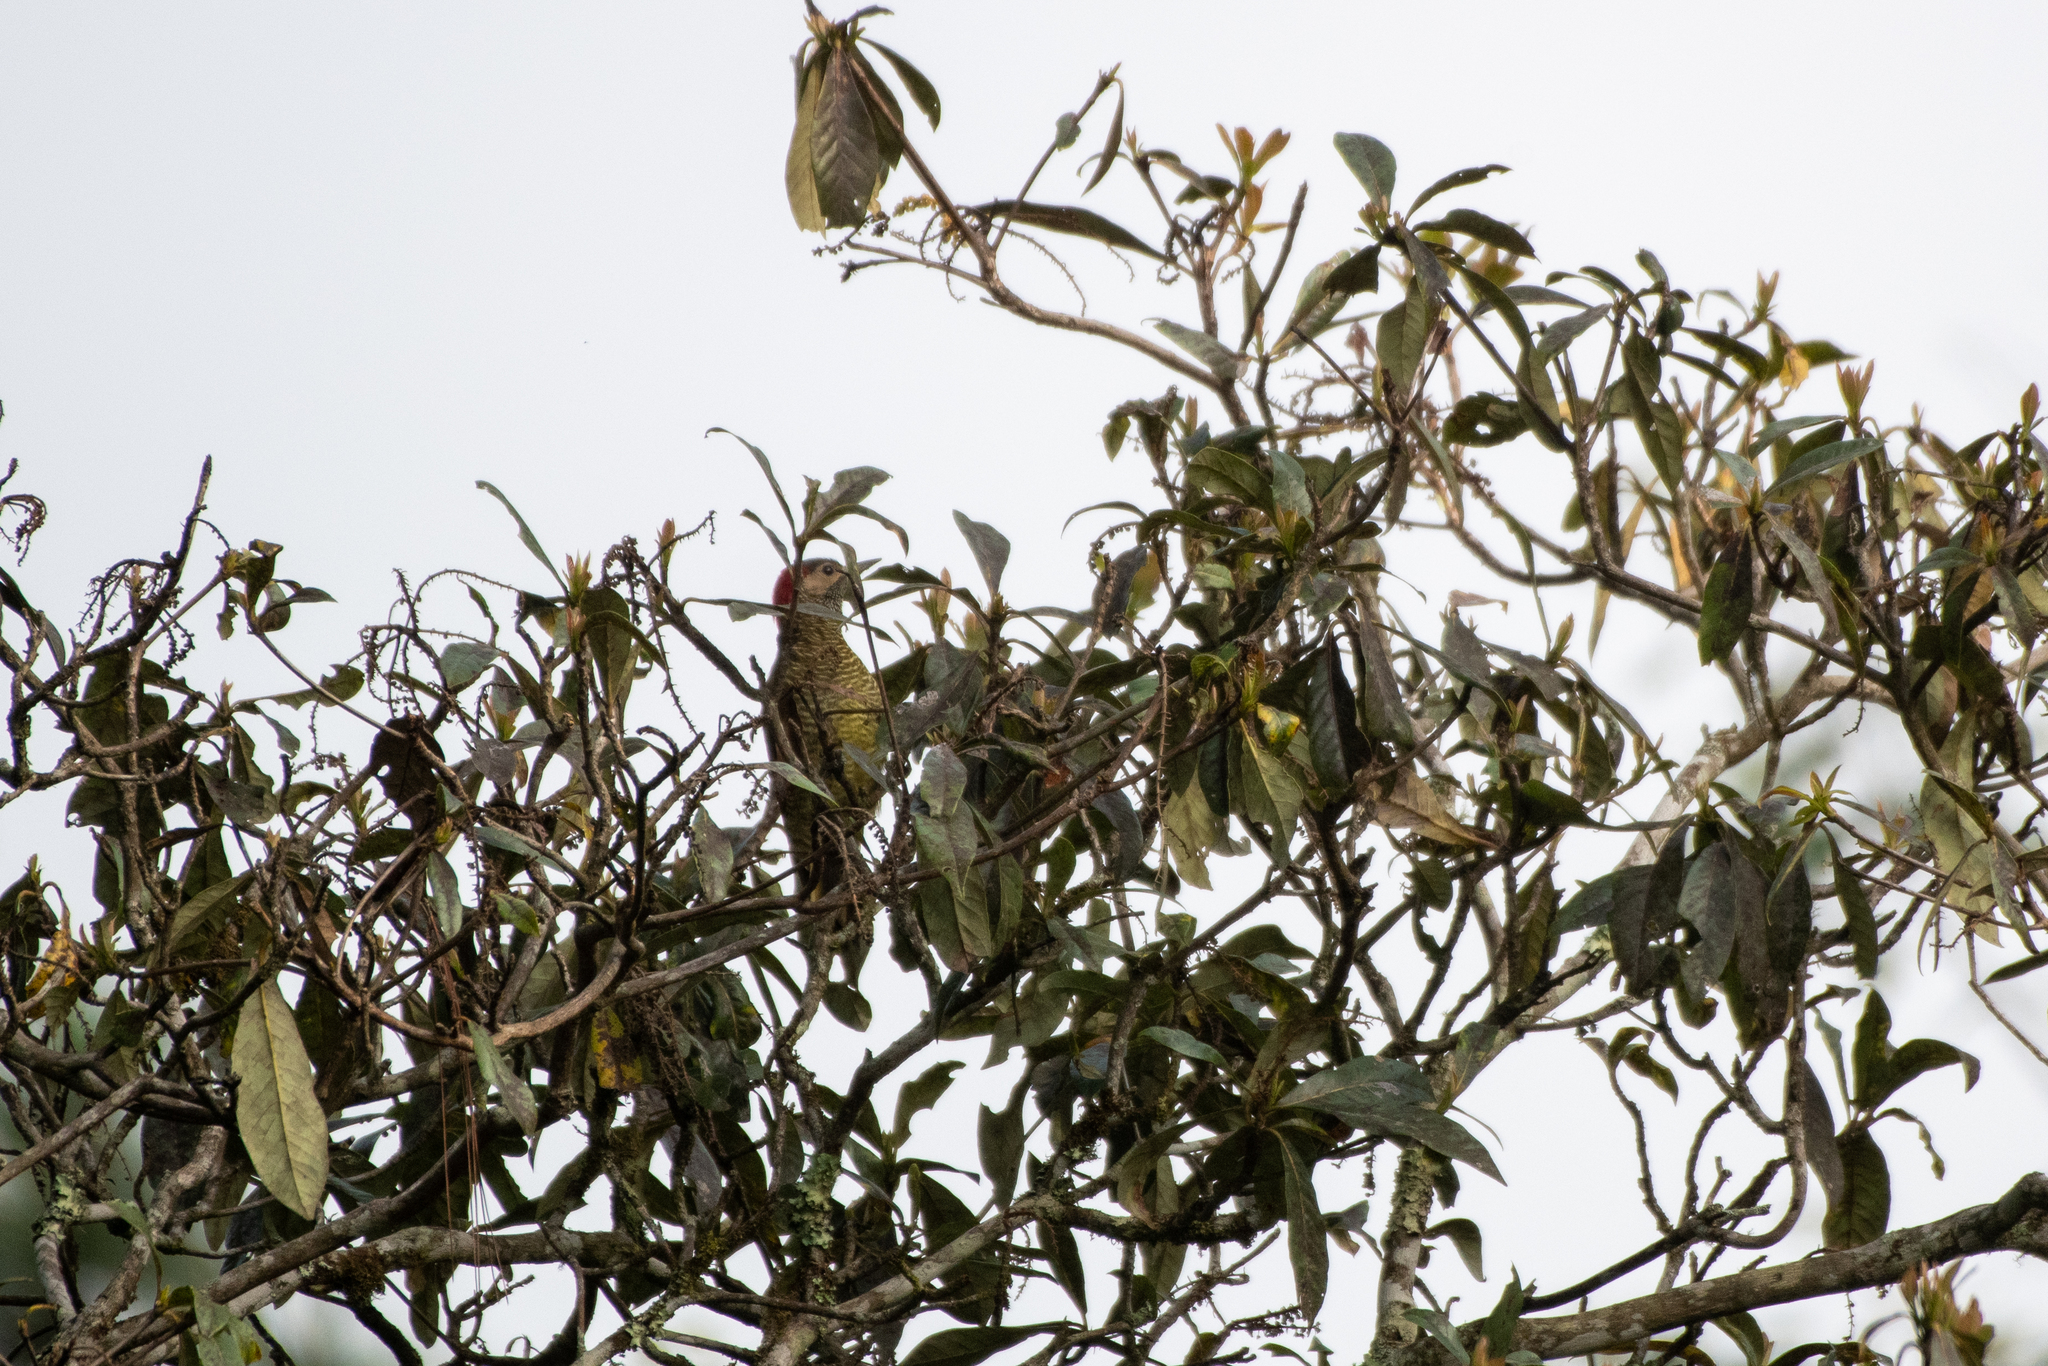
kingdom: Animalia
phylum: Chordata
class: Aves
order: Piciformes
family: Picidae
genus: Colaptes
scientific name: Colaptes rubiginosus
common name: Golden-olive woodpecker
